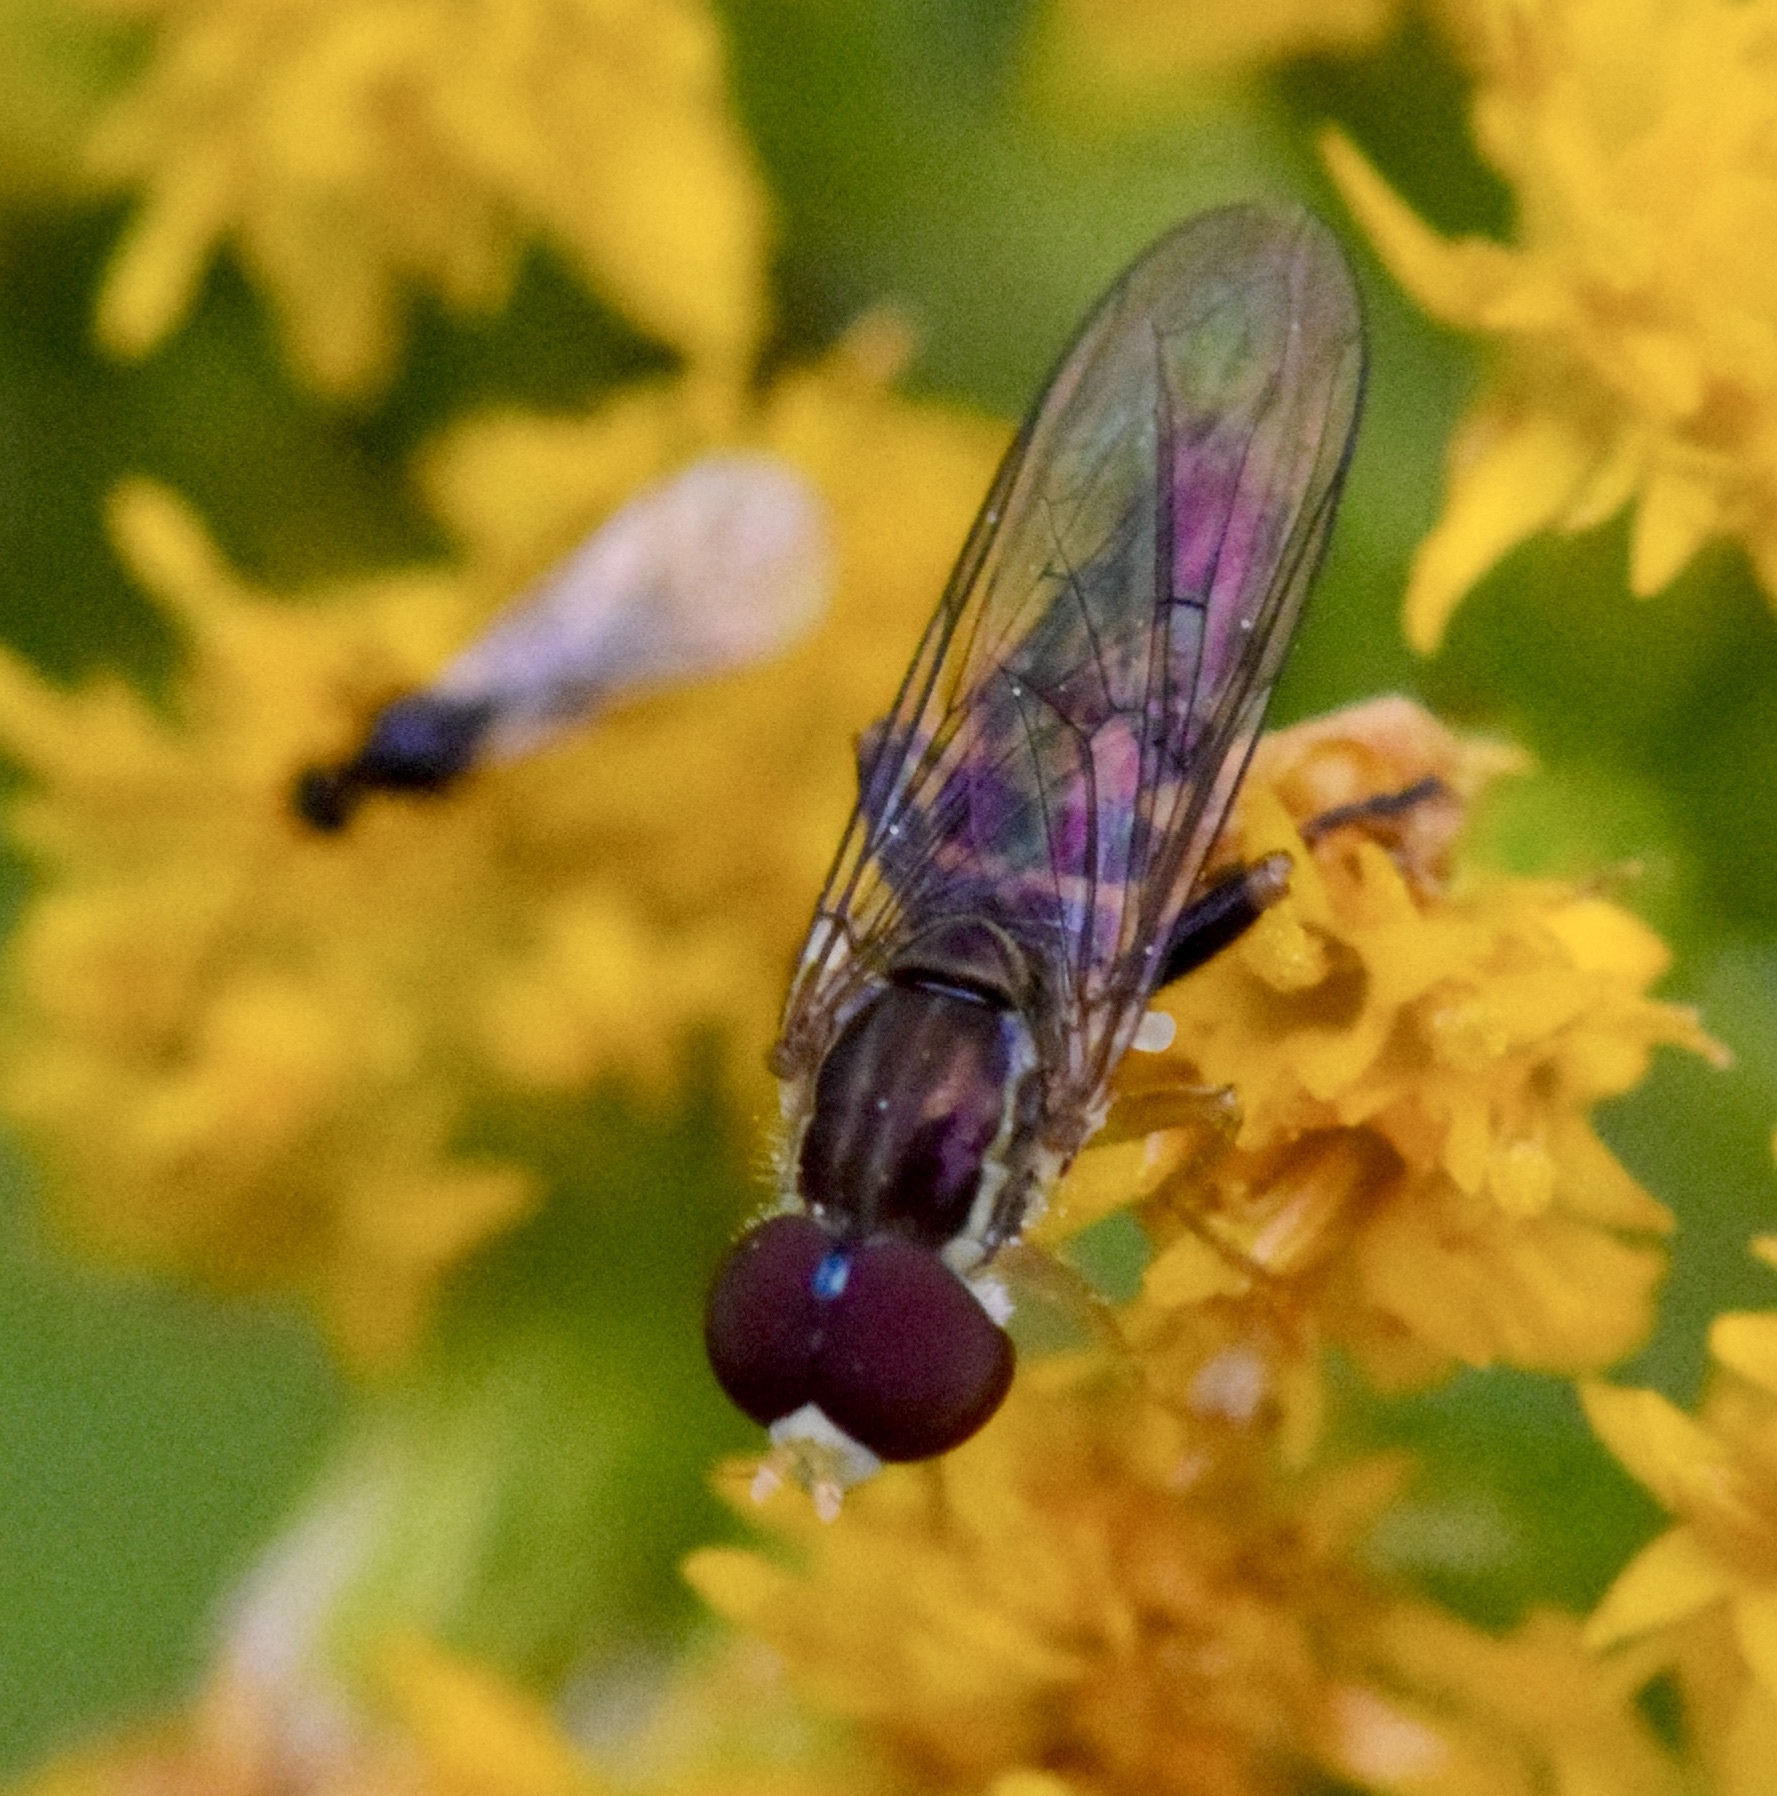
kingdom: Animalia
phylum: Arthropoda
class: Insecta
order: Diptera
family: Syrphidae
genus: Toxomerus
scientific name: Toxomerus geminatus
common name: Eastern calligrapher
